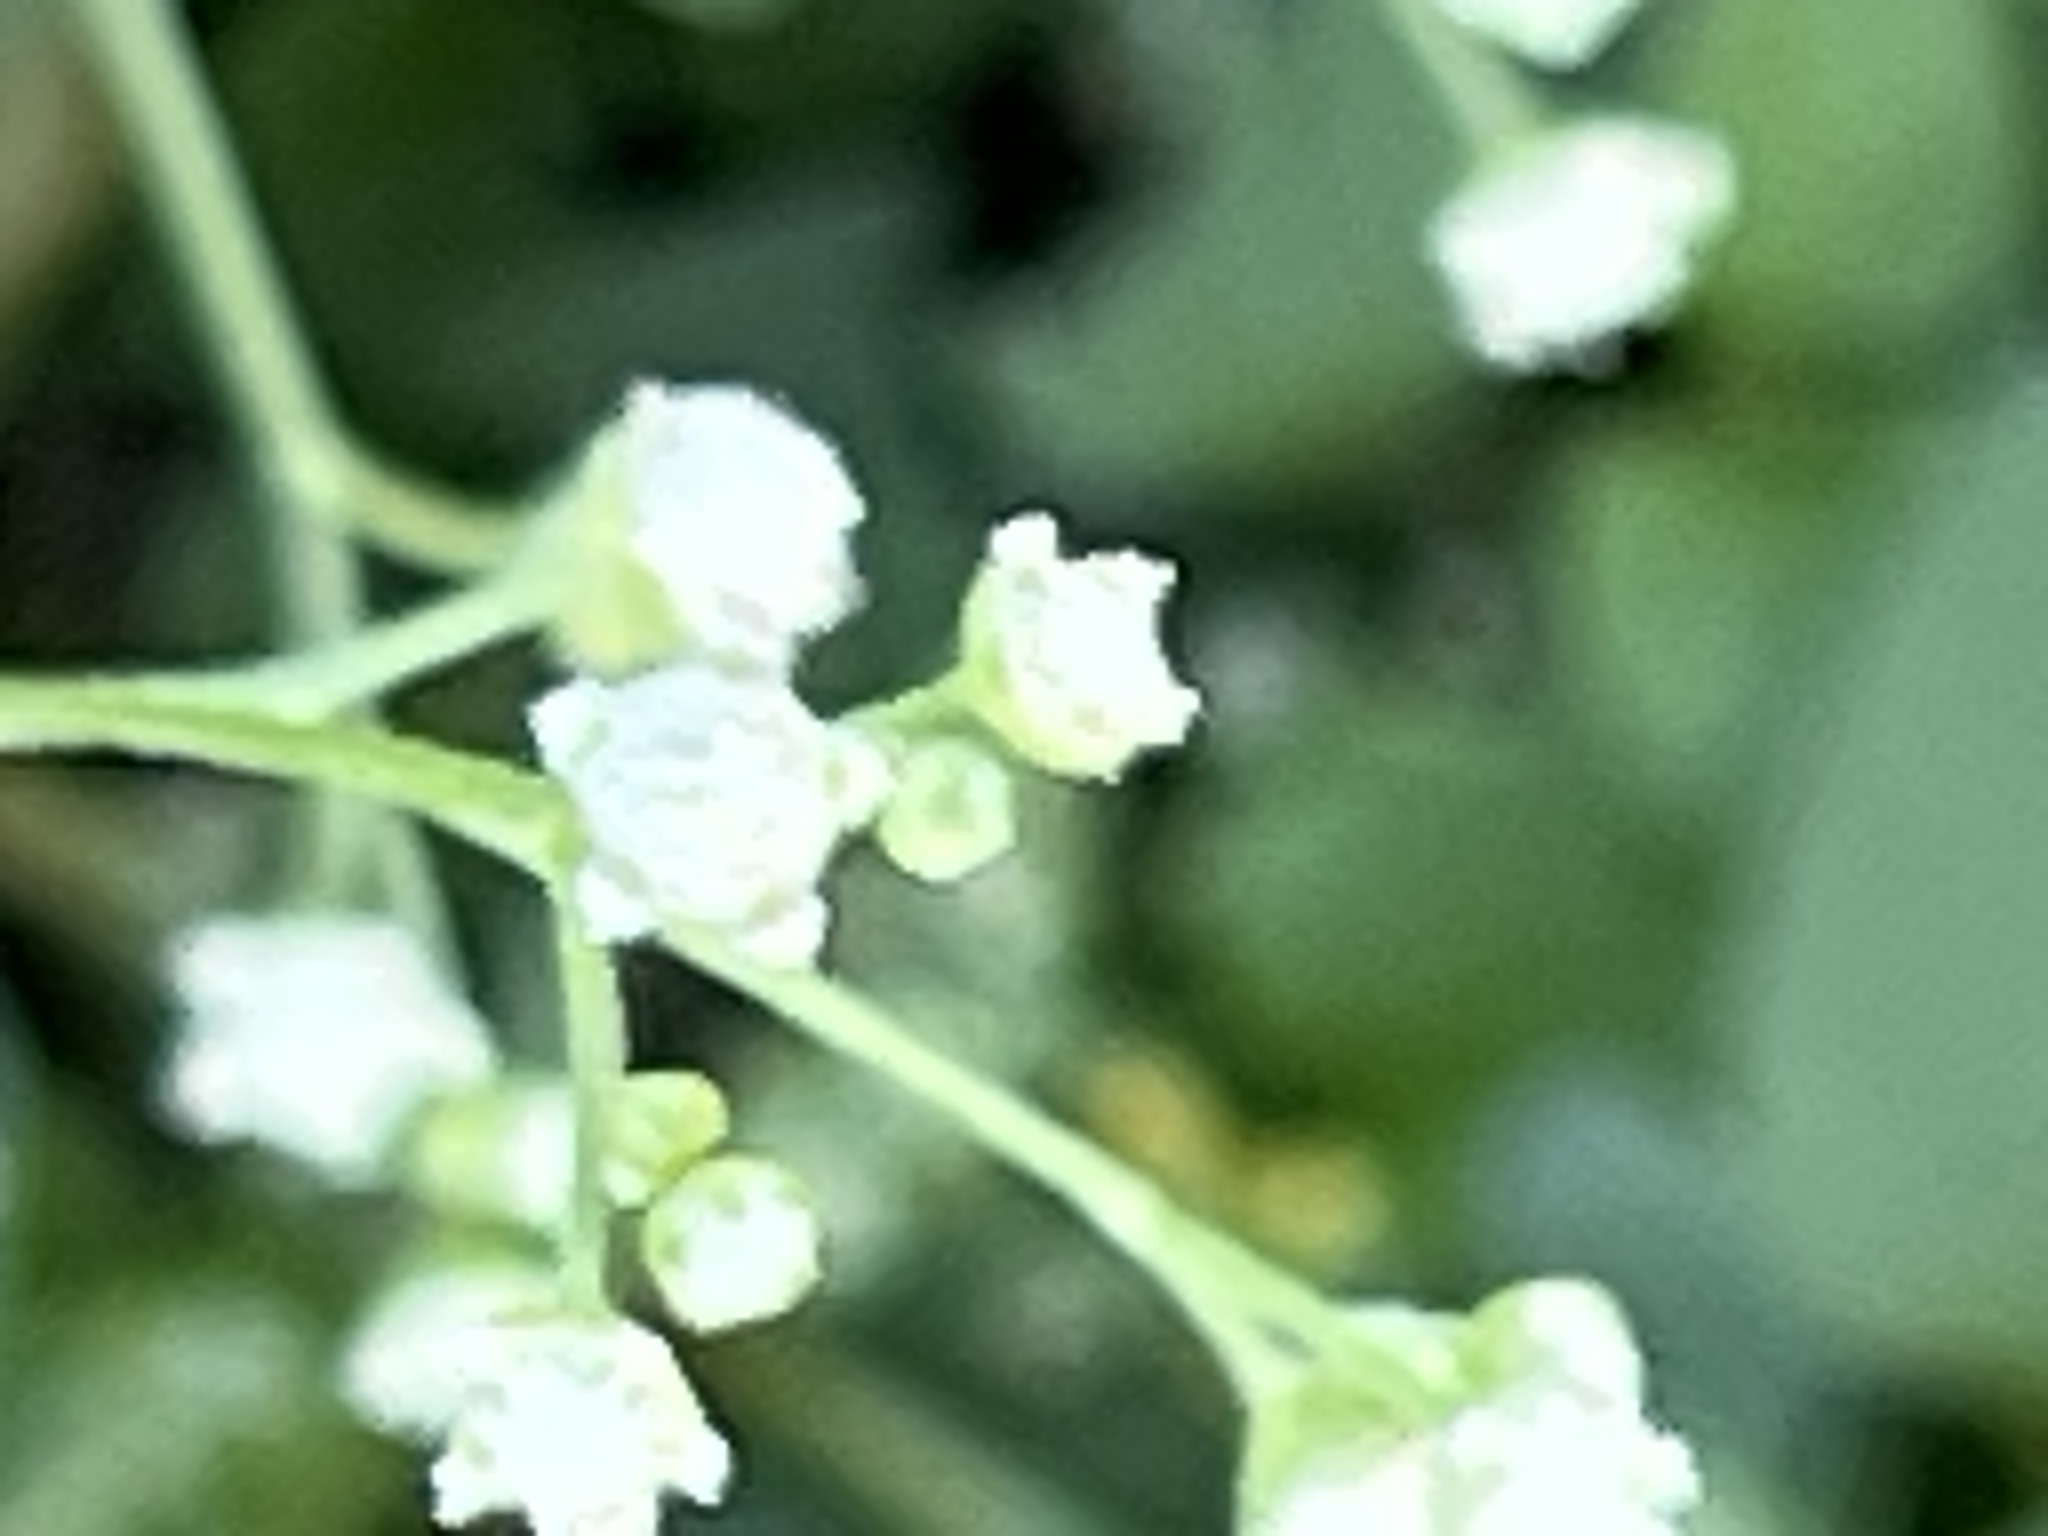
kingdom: Plantae
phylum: Tracheophyta
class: Magnoliopsida
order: Asterales
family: Asteraceae
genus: Parthenium
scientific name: Parthenium hysterophorus
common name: Santa maria feverfew
